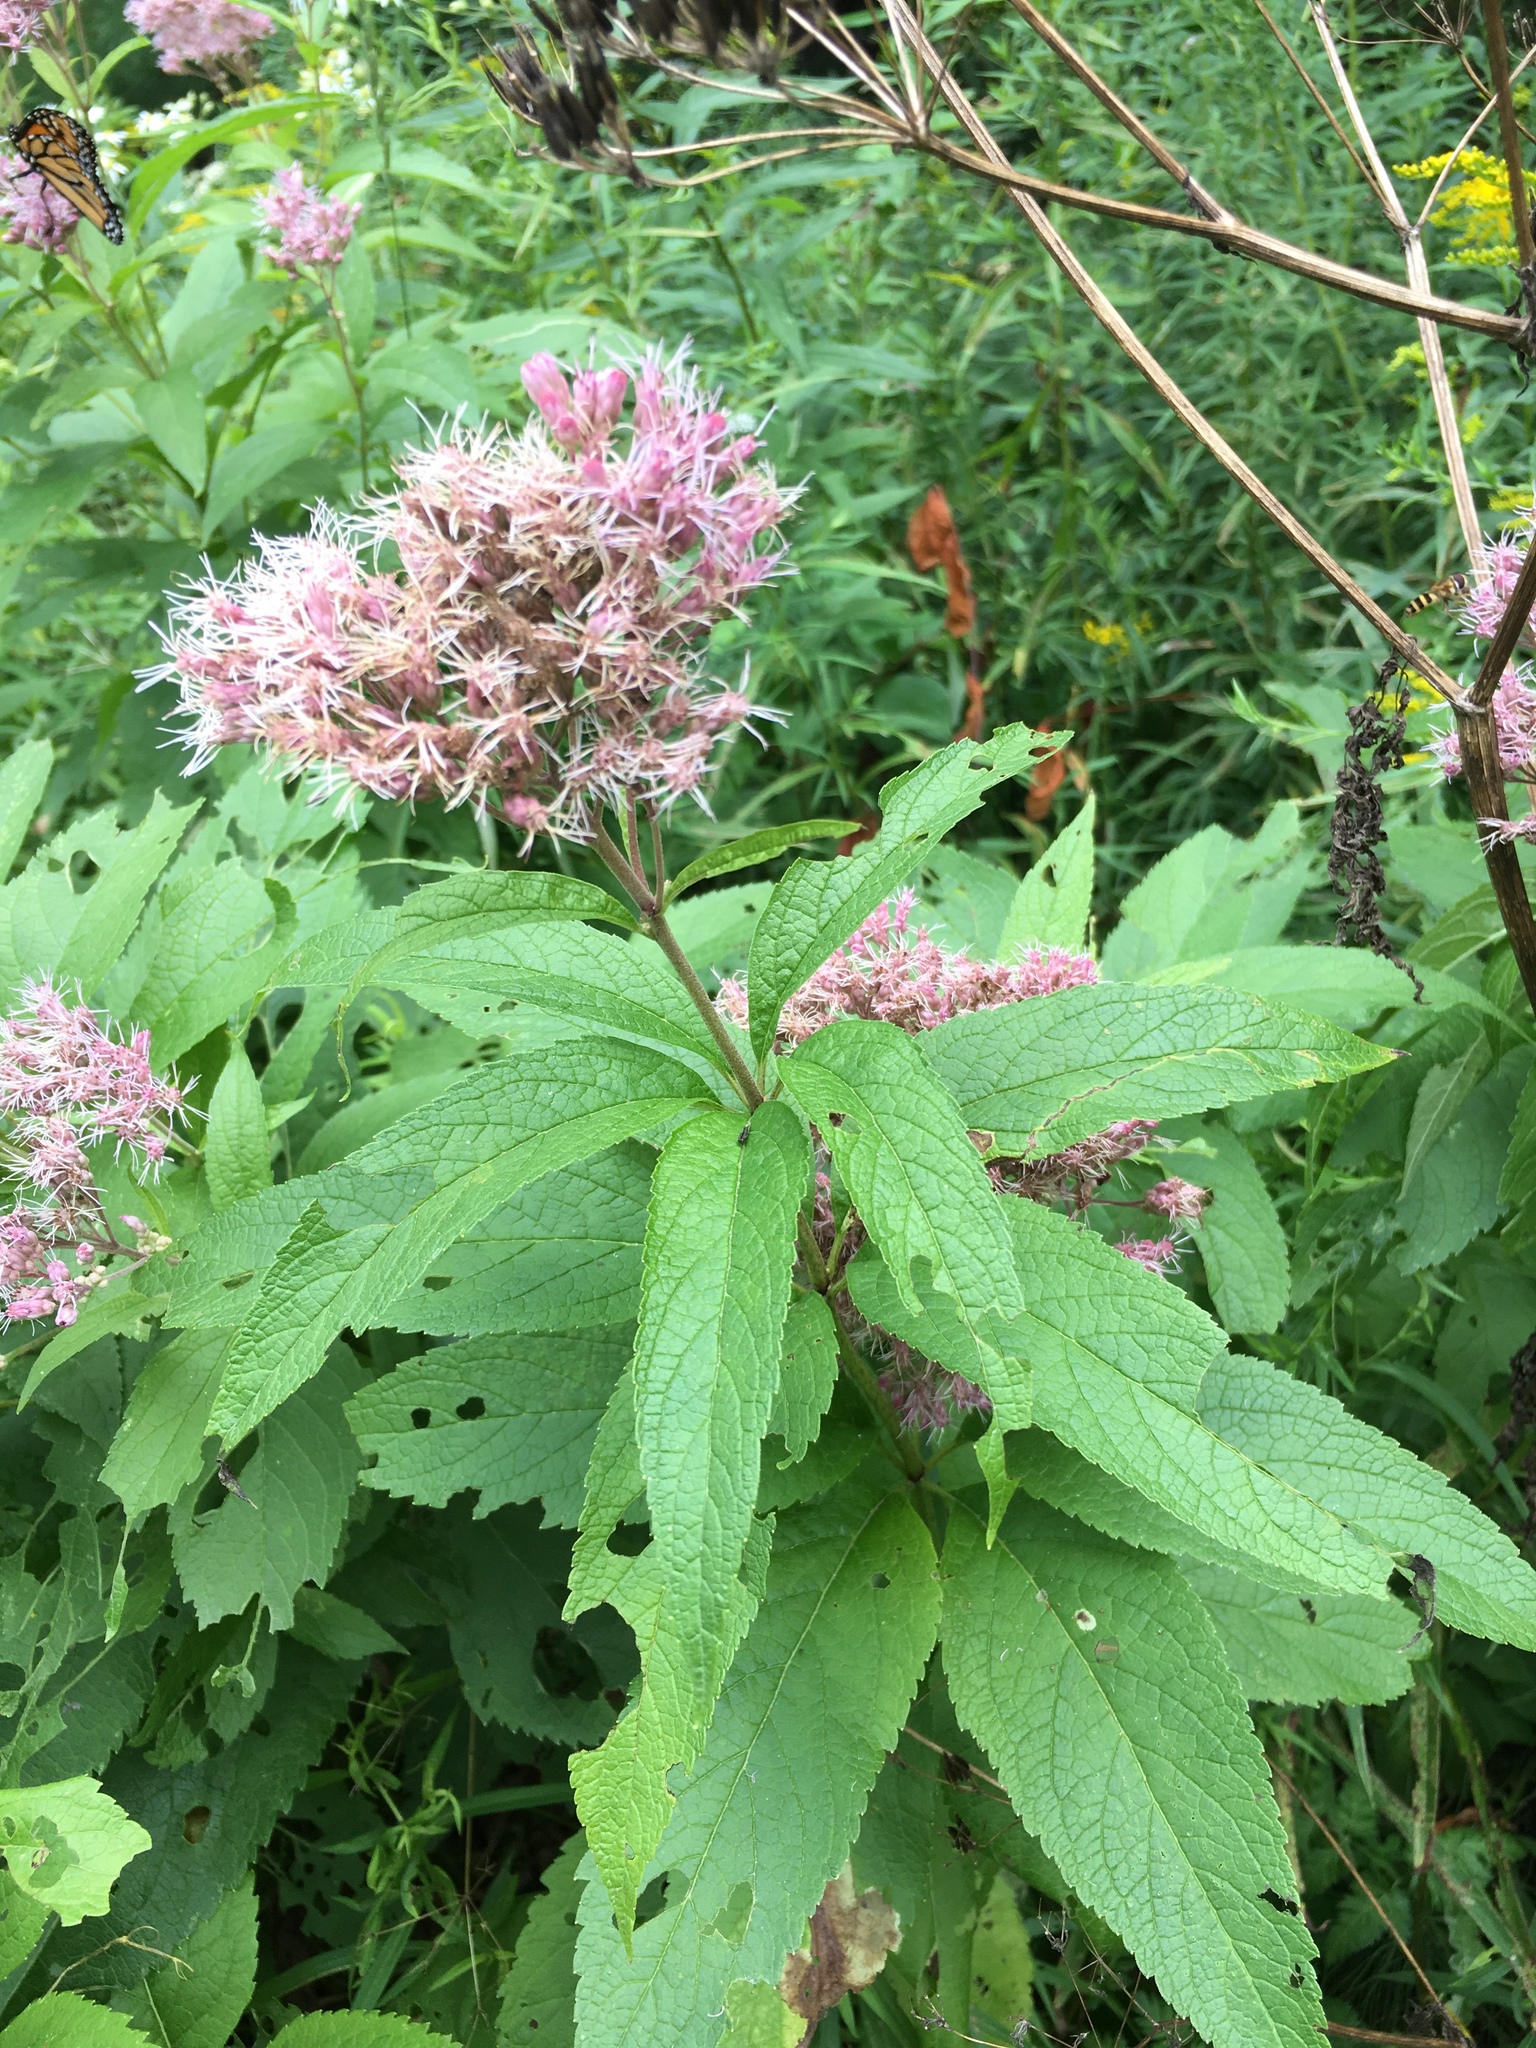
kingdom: Plantae
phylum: Tracheophyta
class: Magnoliopsida
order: Asterales
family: Asteraceae
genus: Eutrochium
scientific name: Eutrochium maculatum
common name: Spotted joe pye weed
